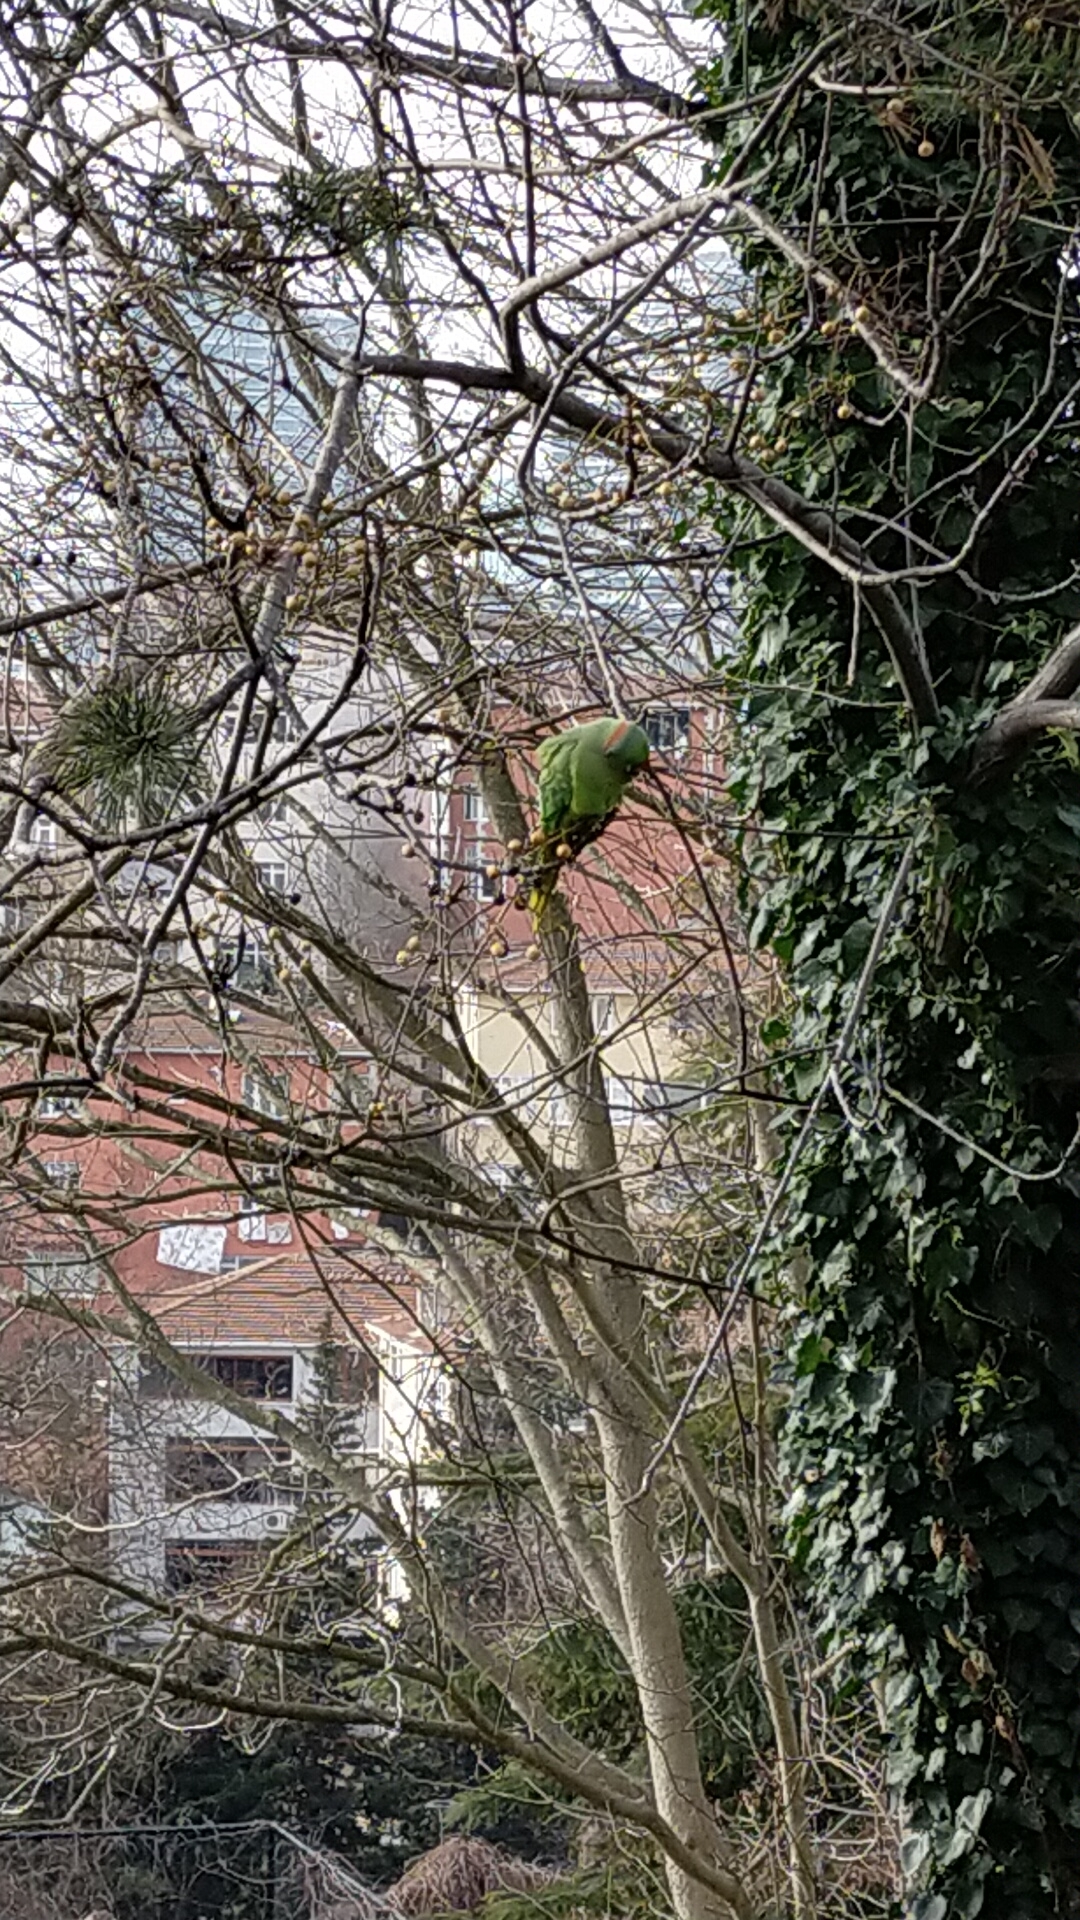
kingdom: Animalia
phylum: Chordata
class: Aves
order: Psittaciformes
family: Psittacidae
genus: Psittacula
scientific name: Psittacula krameri
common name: Rose-ringed parakeet
